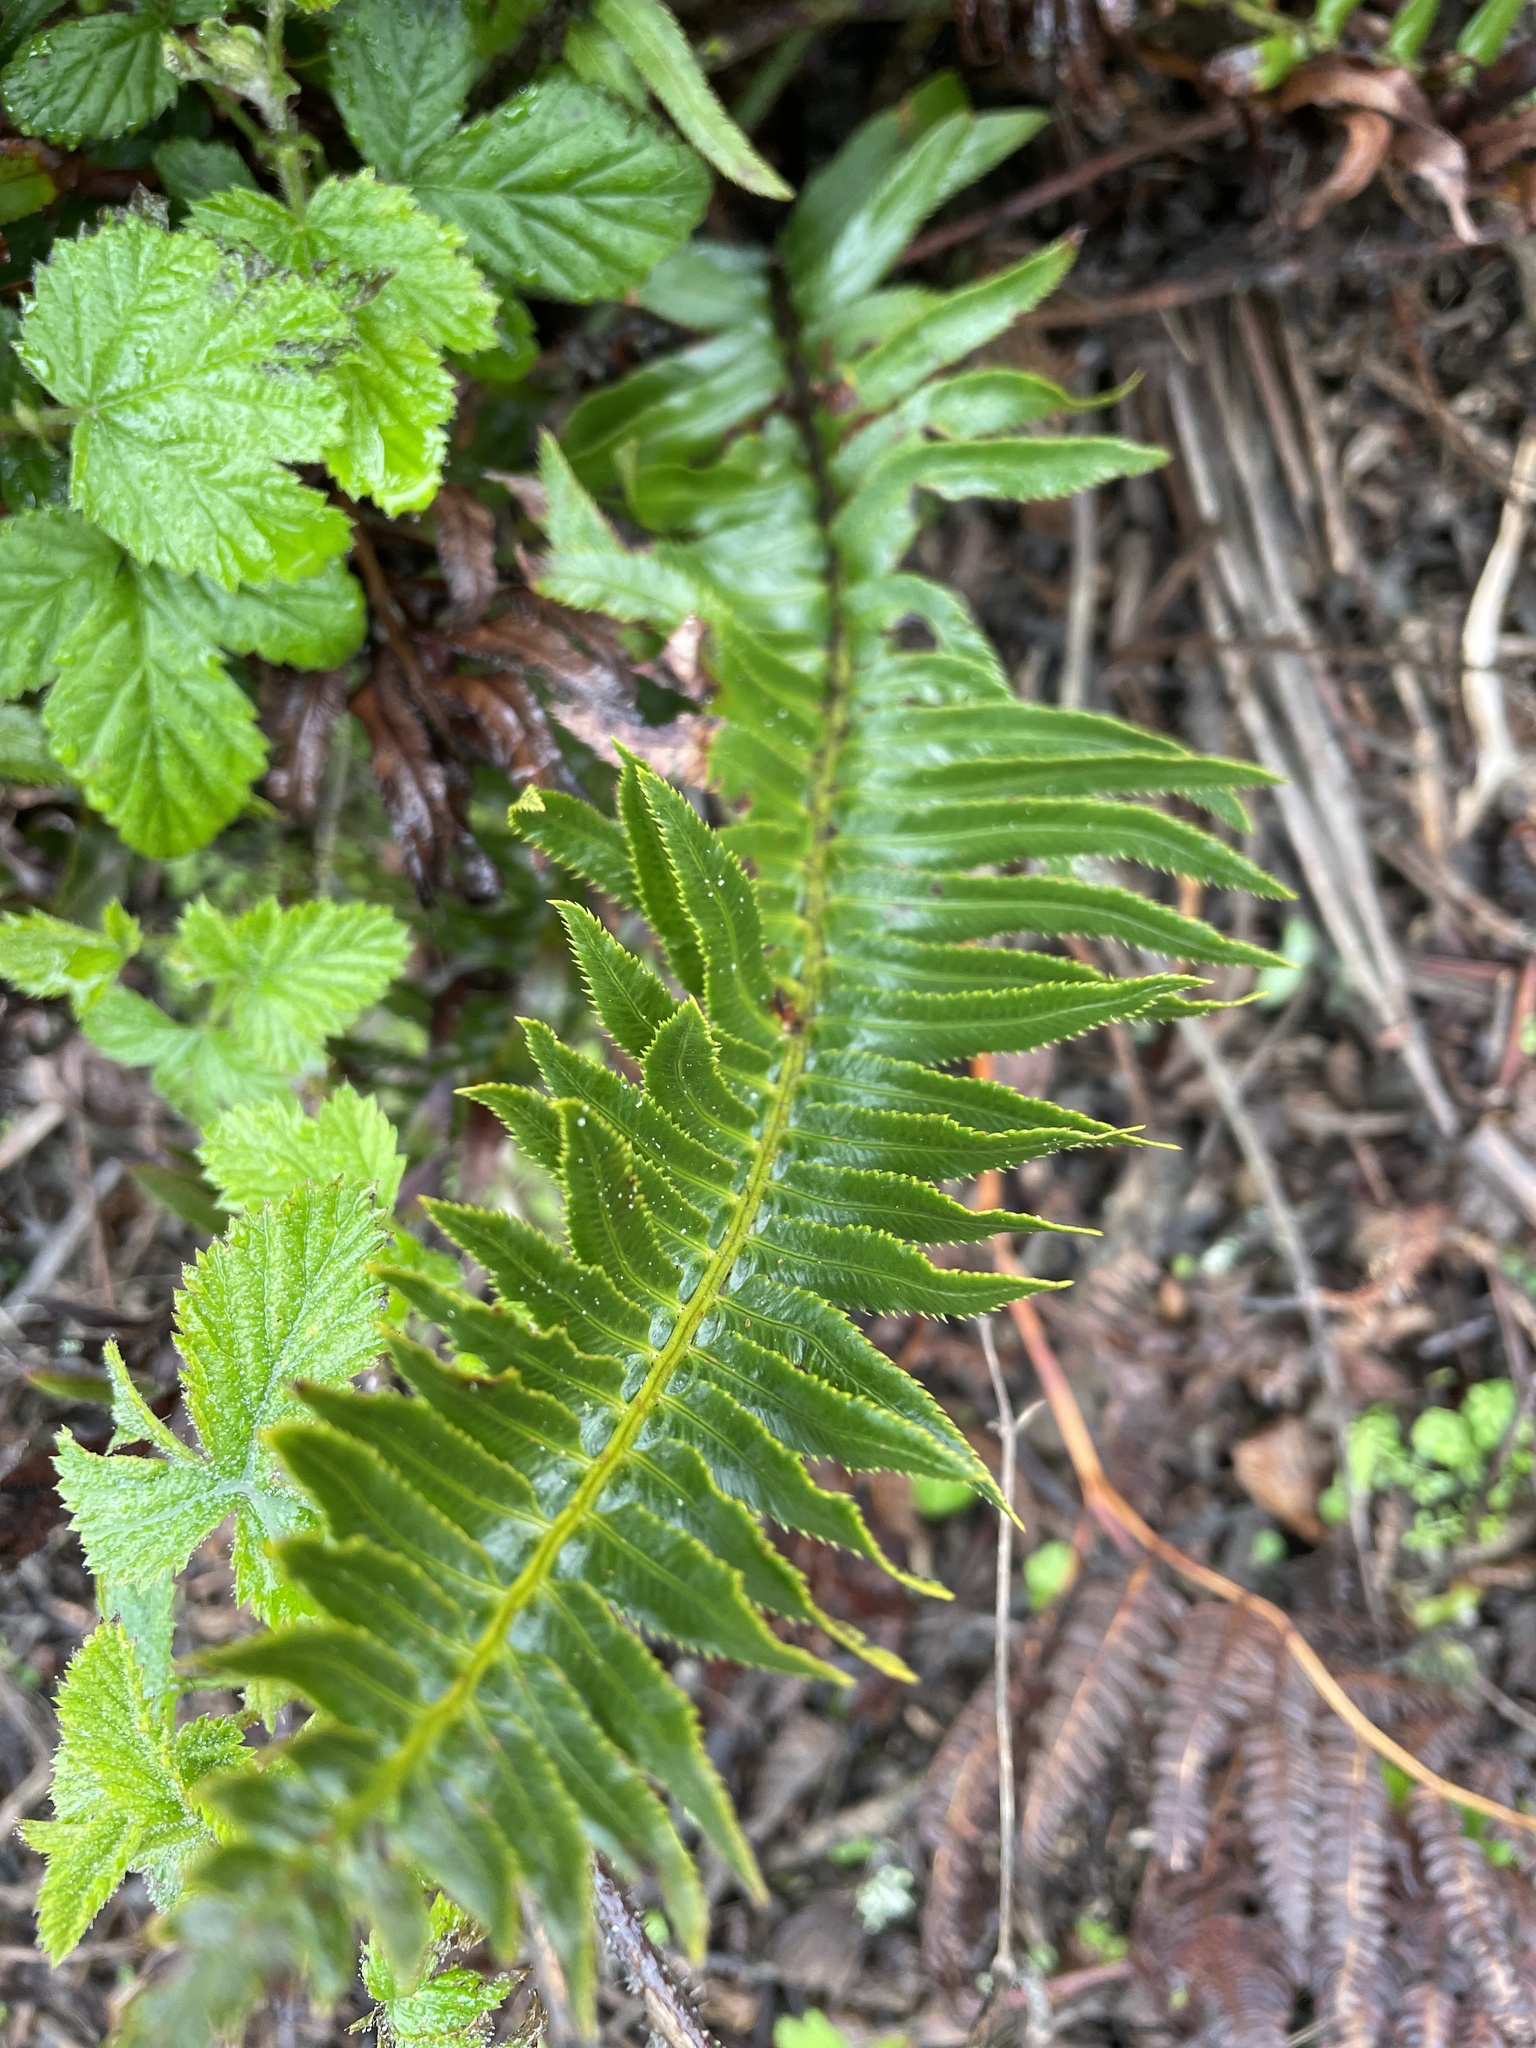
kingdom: Plantae
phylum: Tracheophyta
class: Polypodiopsida
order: Polypodiales
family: Dryopteridaceae
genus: Polystichum
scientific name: Polystichum munitum
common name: Western sword-fern
